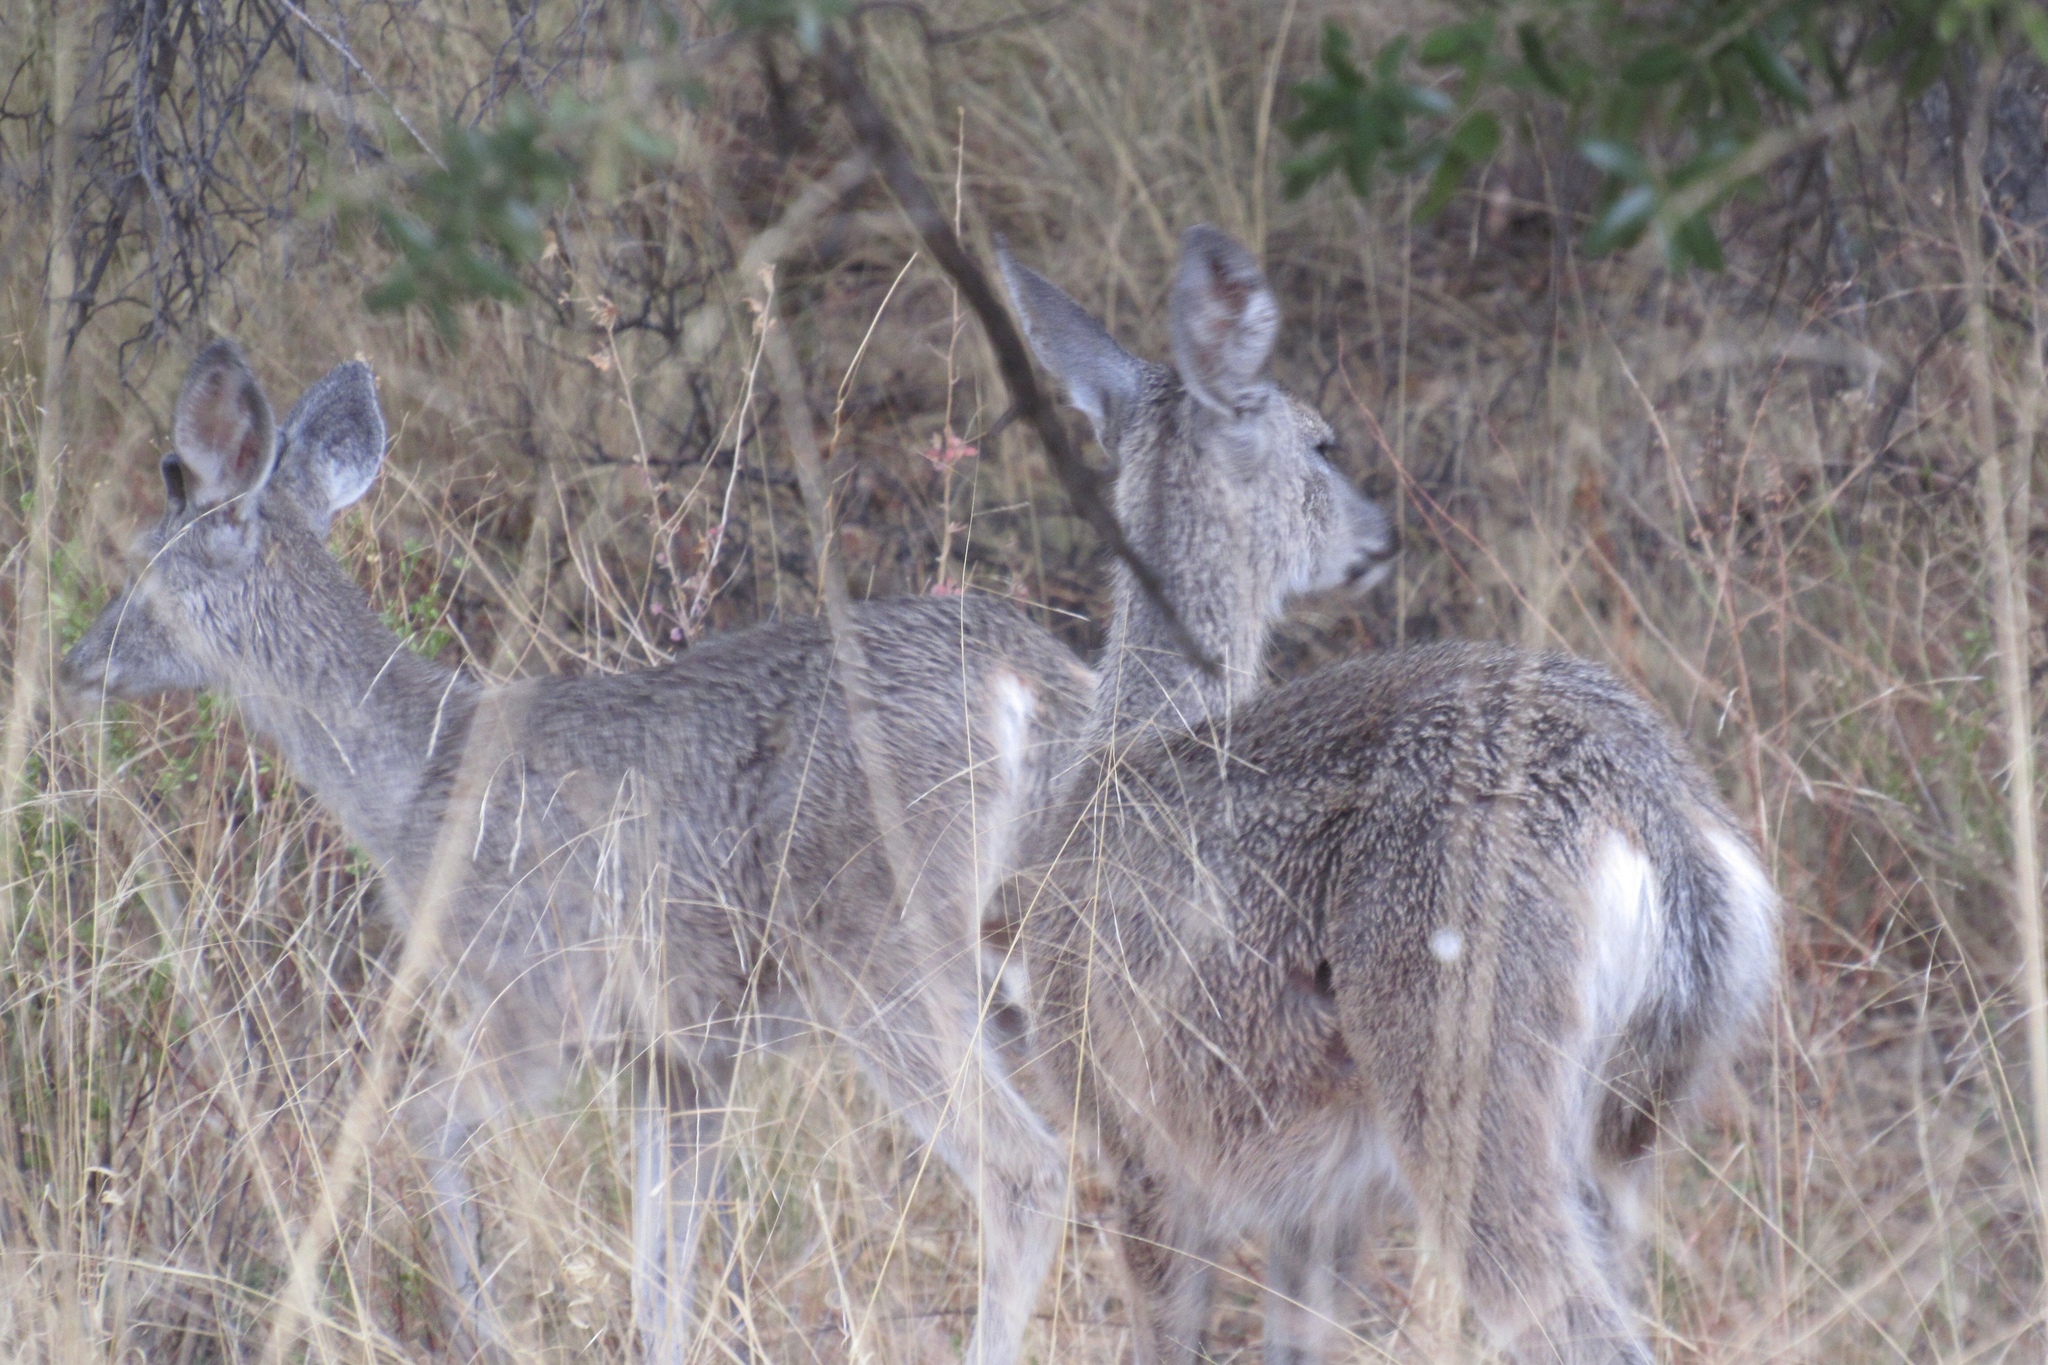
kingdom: Animalia
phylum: Chordata
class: Mammalia
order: Artiodactyla
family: Cervidae
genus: Odocoileus
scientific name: Odocoileus virginianus
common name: White-tailed deer
